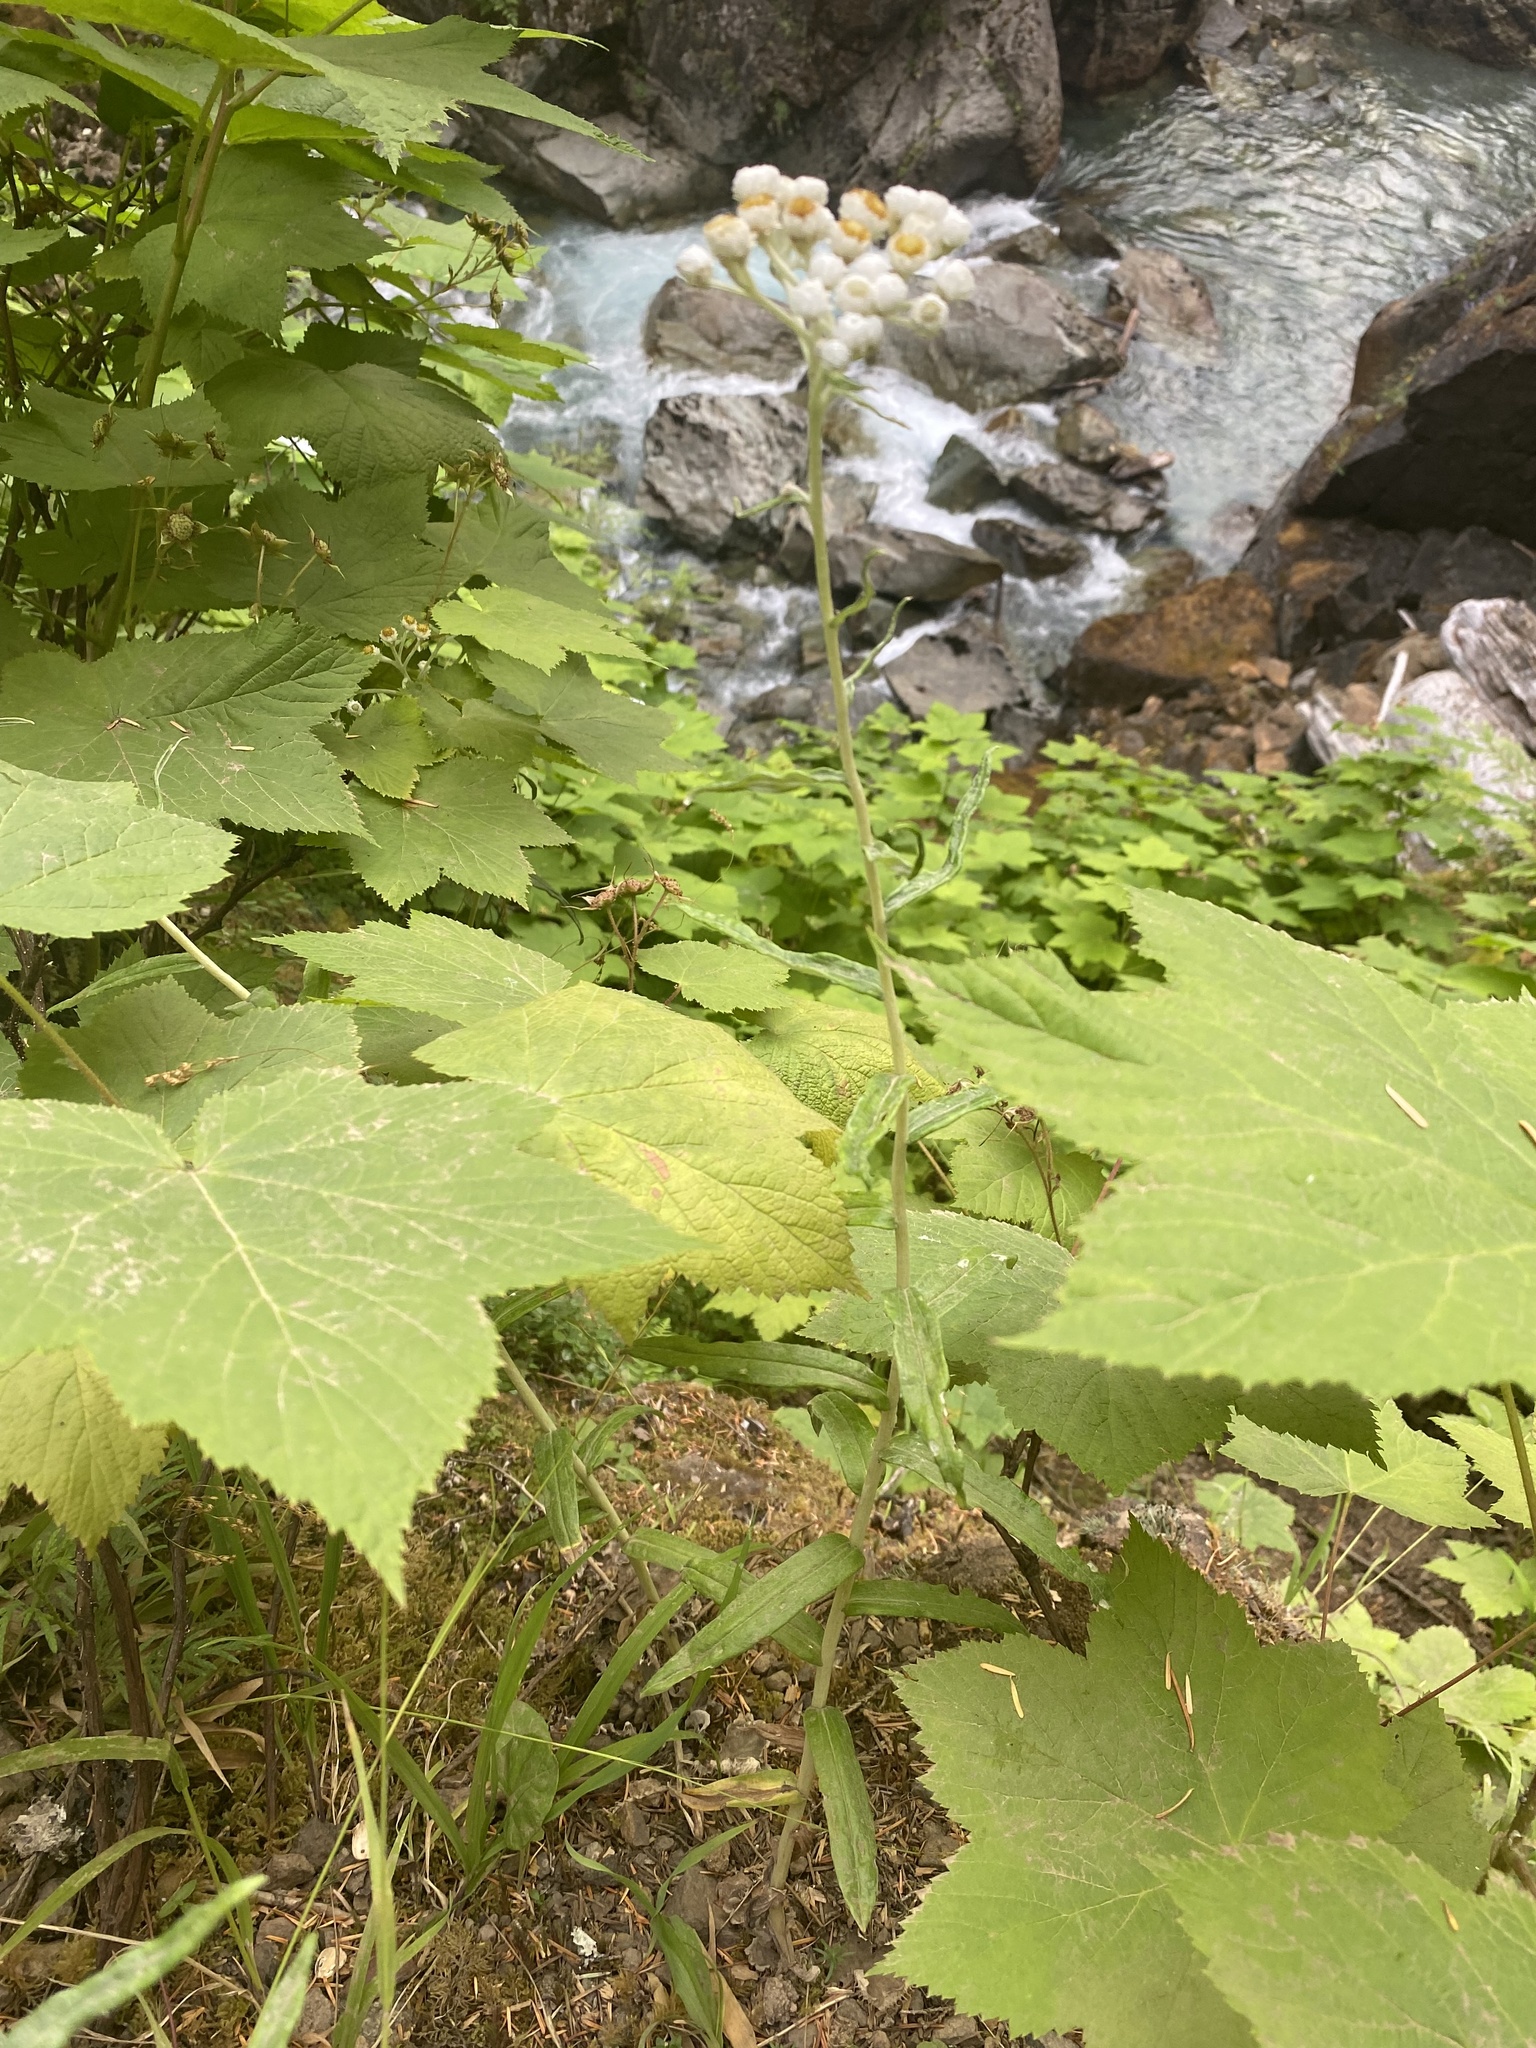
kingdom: Plantae
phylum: Tracheophyta
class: Magnoliopsida
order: Asterales
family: Asteraceae
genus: Anaphalis
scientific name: Anaphalis margaritacea
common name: Pearly everlasting
